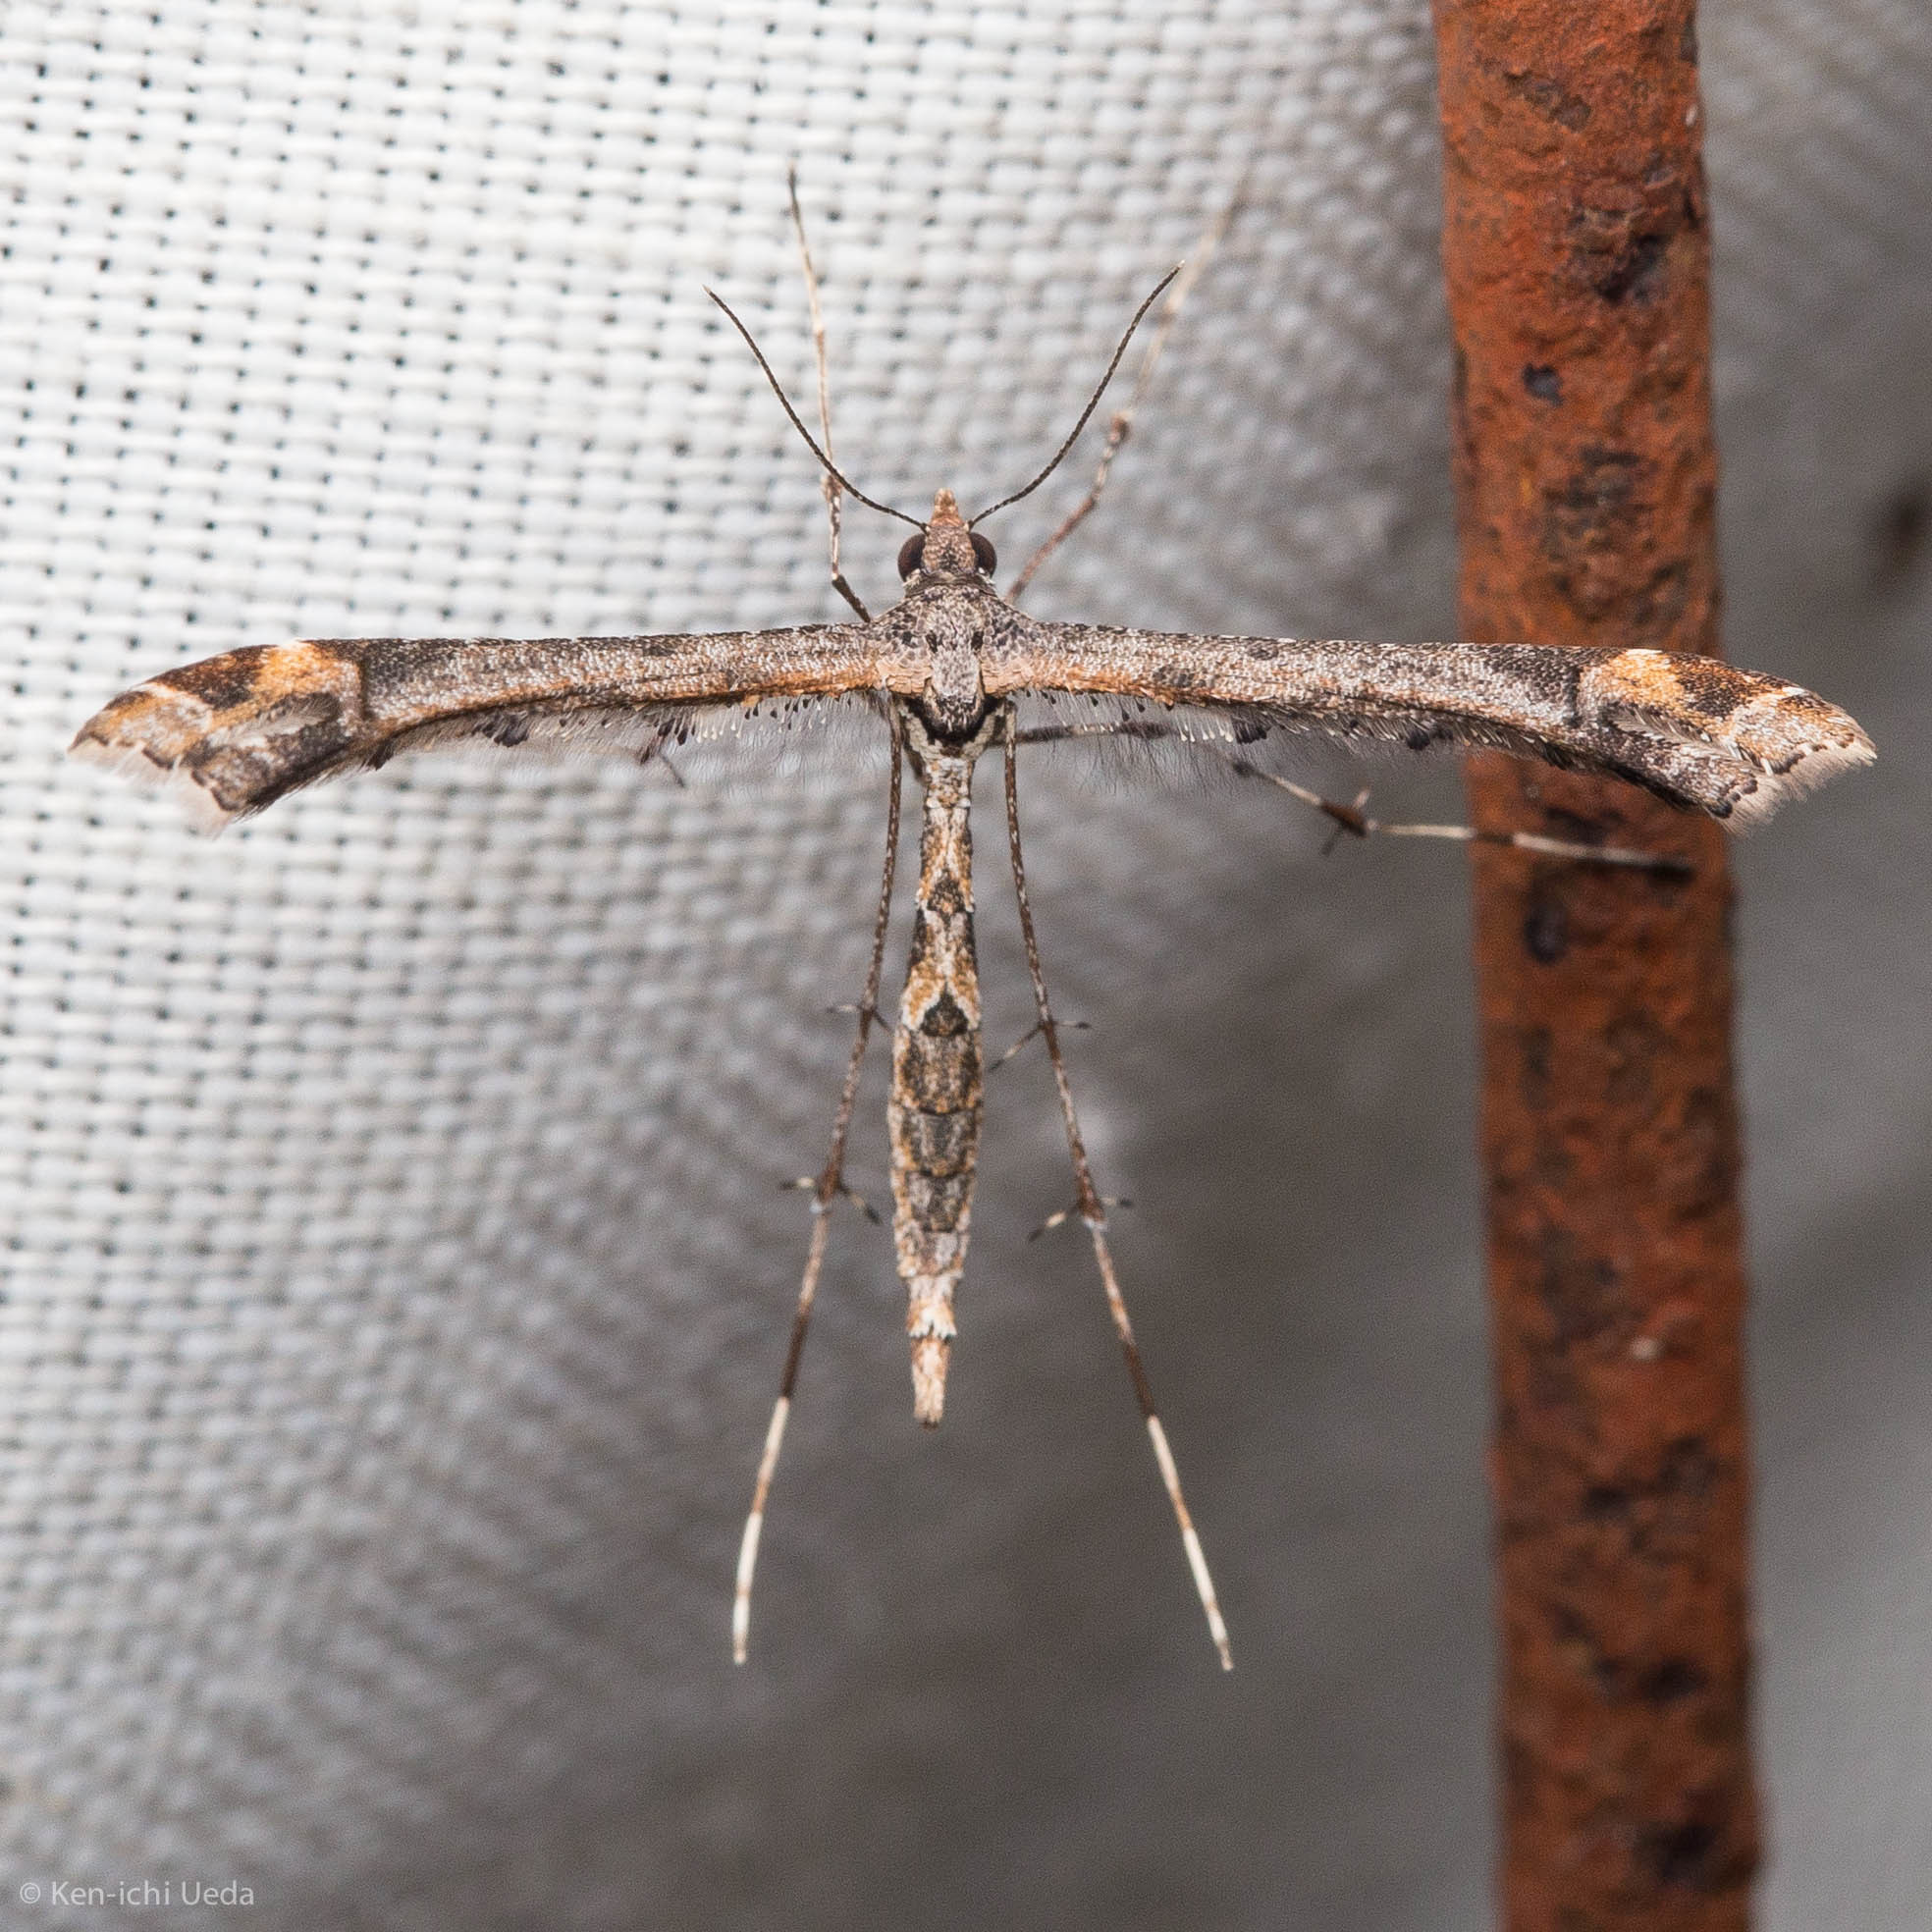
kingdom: Animalia
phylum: Arthropoda
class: Insecta
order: Lepidoptera
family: Pterophoridae
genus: Anstenoptilia
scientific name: Anstenoptilia marmarodactyla
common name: Moth
